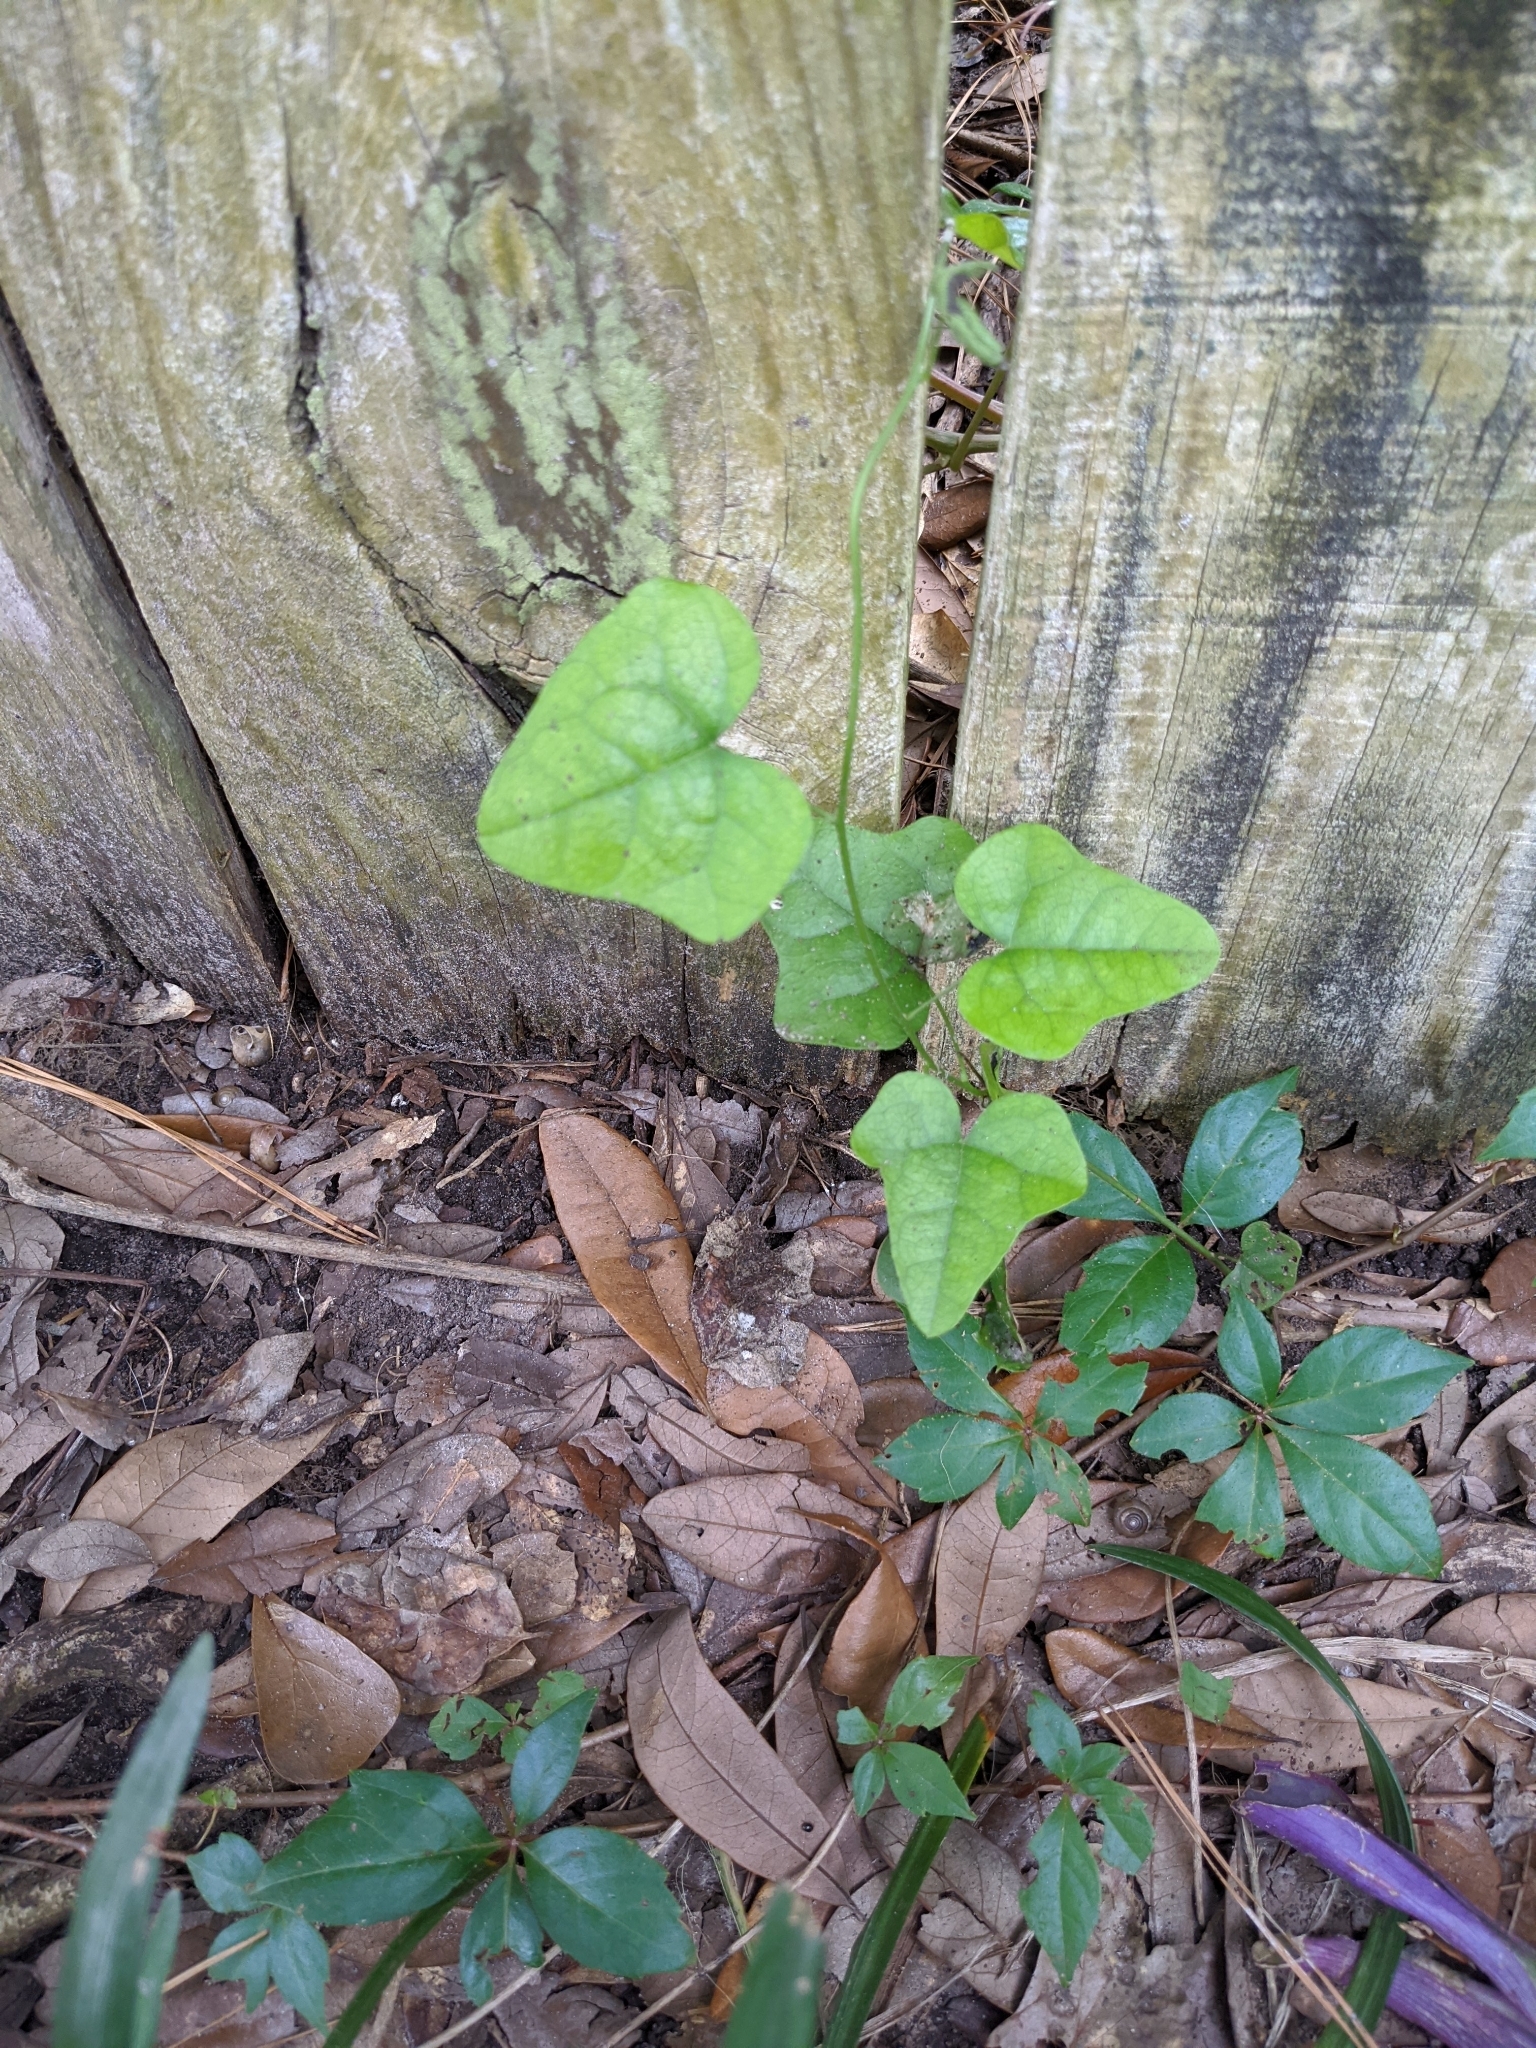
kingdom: Plantae
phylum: Tracheophyta
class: Magnoliopsida
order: Ranunculales
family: Menispermaceae
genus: Cocculus
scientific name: Cocculus carolinus
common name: Carolina moonseed
